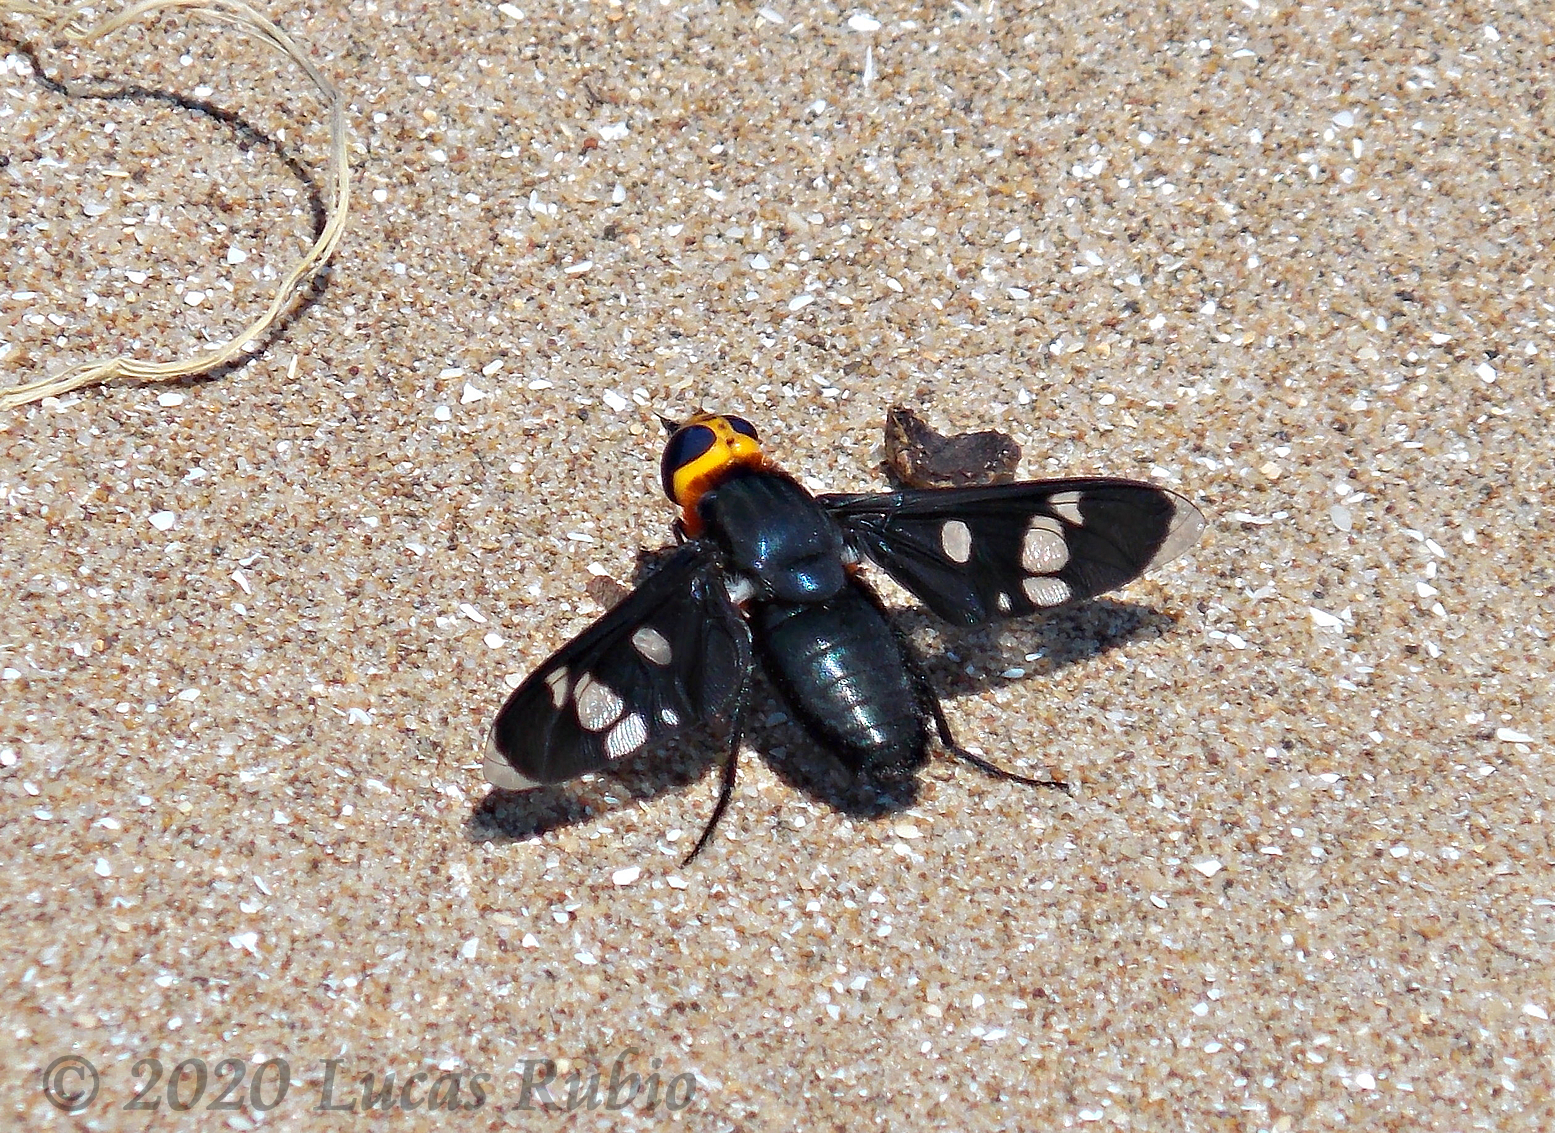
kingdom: Animalia
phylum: Arthropoda
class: Insecta
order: Diptera
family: Bombyliidae
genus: Hyperalonia
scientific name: Hyperalonia morio
